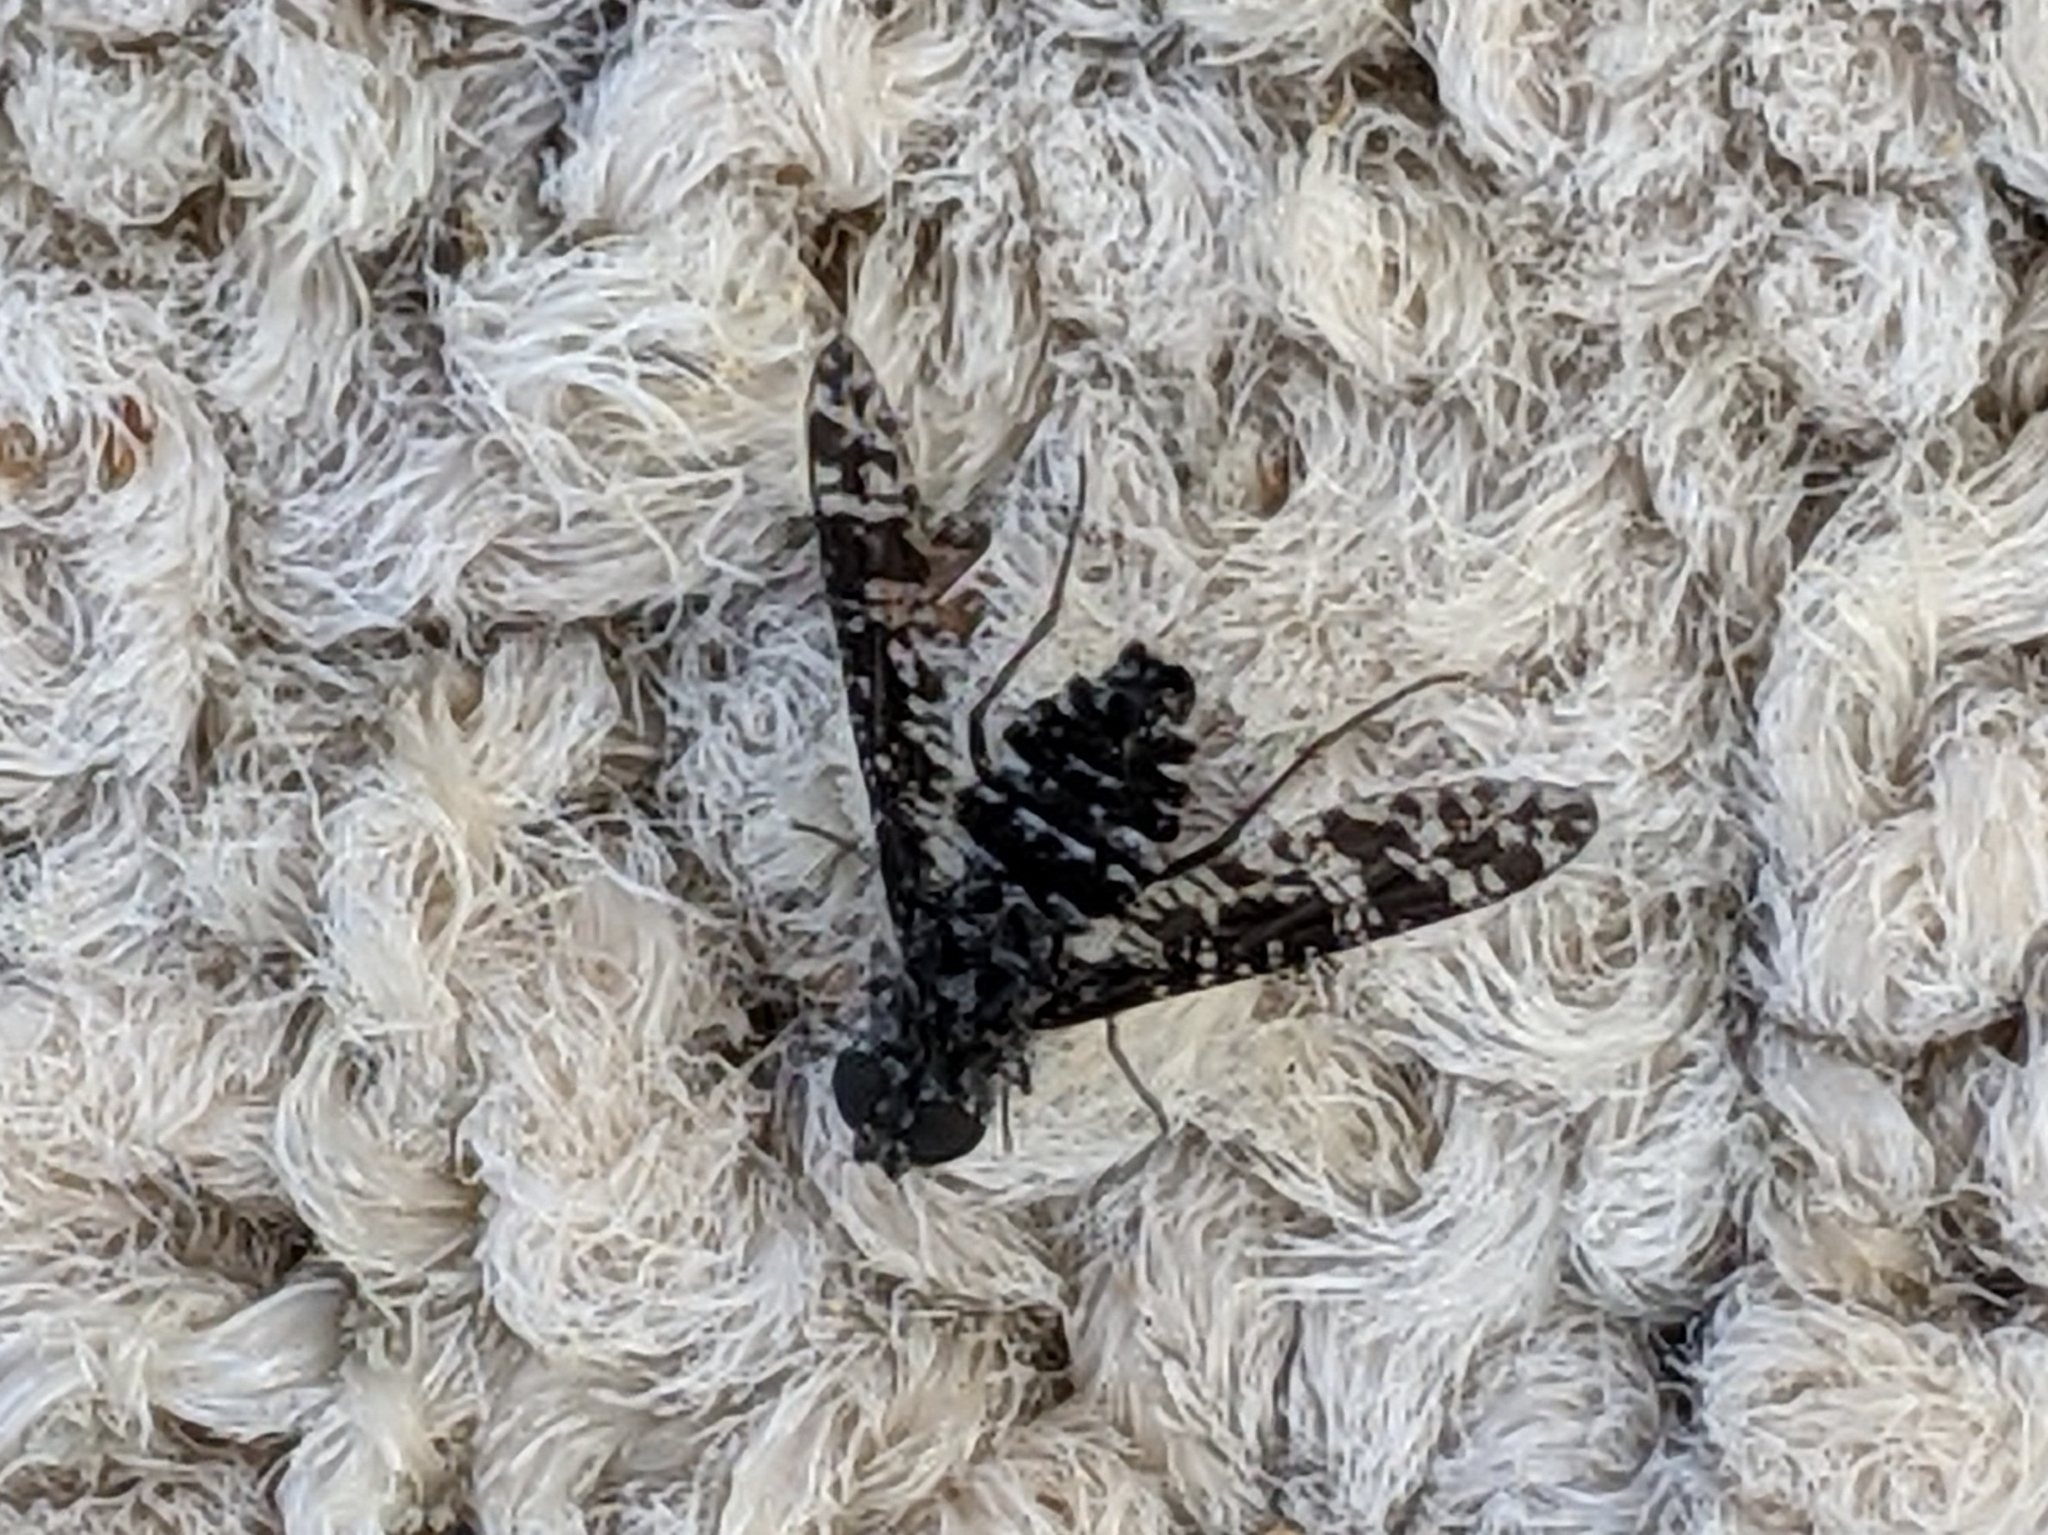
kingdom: Animalia
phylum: Arthropoda
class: Insecta
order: Diptera
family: Bombyliidae
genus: Anthrax
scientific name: Anthrax
